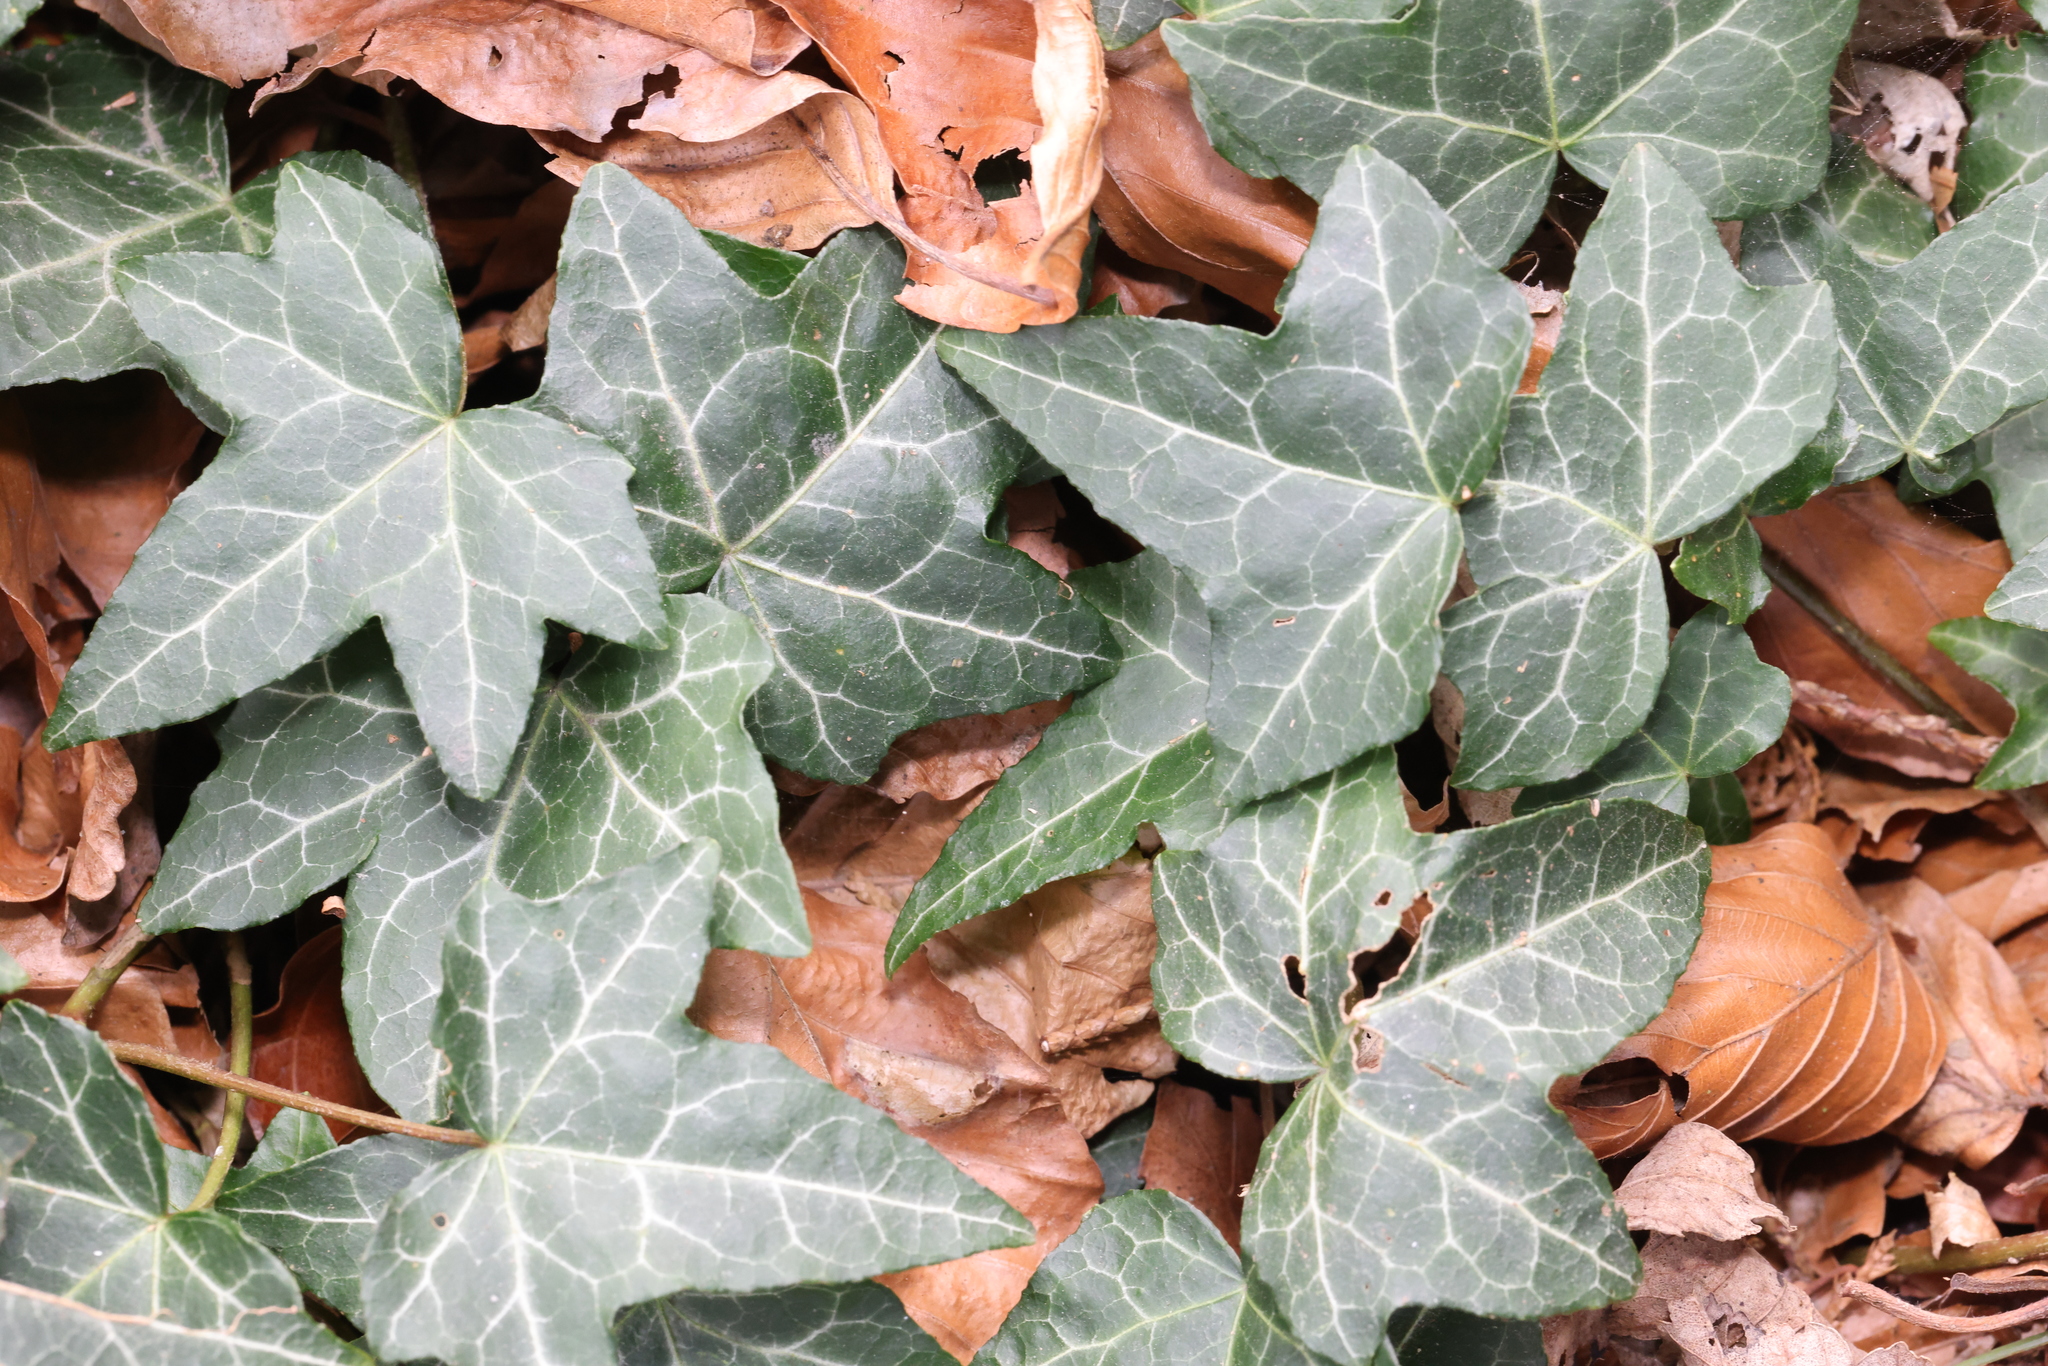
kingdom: Plantae
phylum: Tracheophyta
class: Magnoliopsida
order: Apiales
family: Araliaceae
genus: Hedera
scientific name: Hedera helix
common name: Ivy
